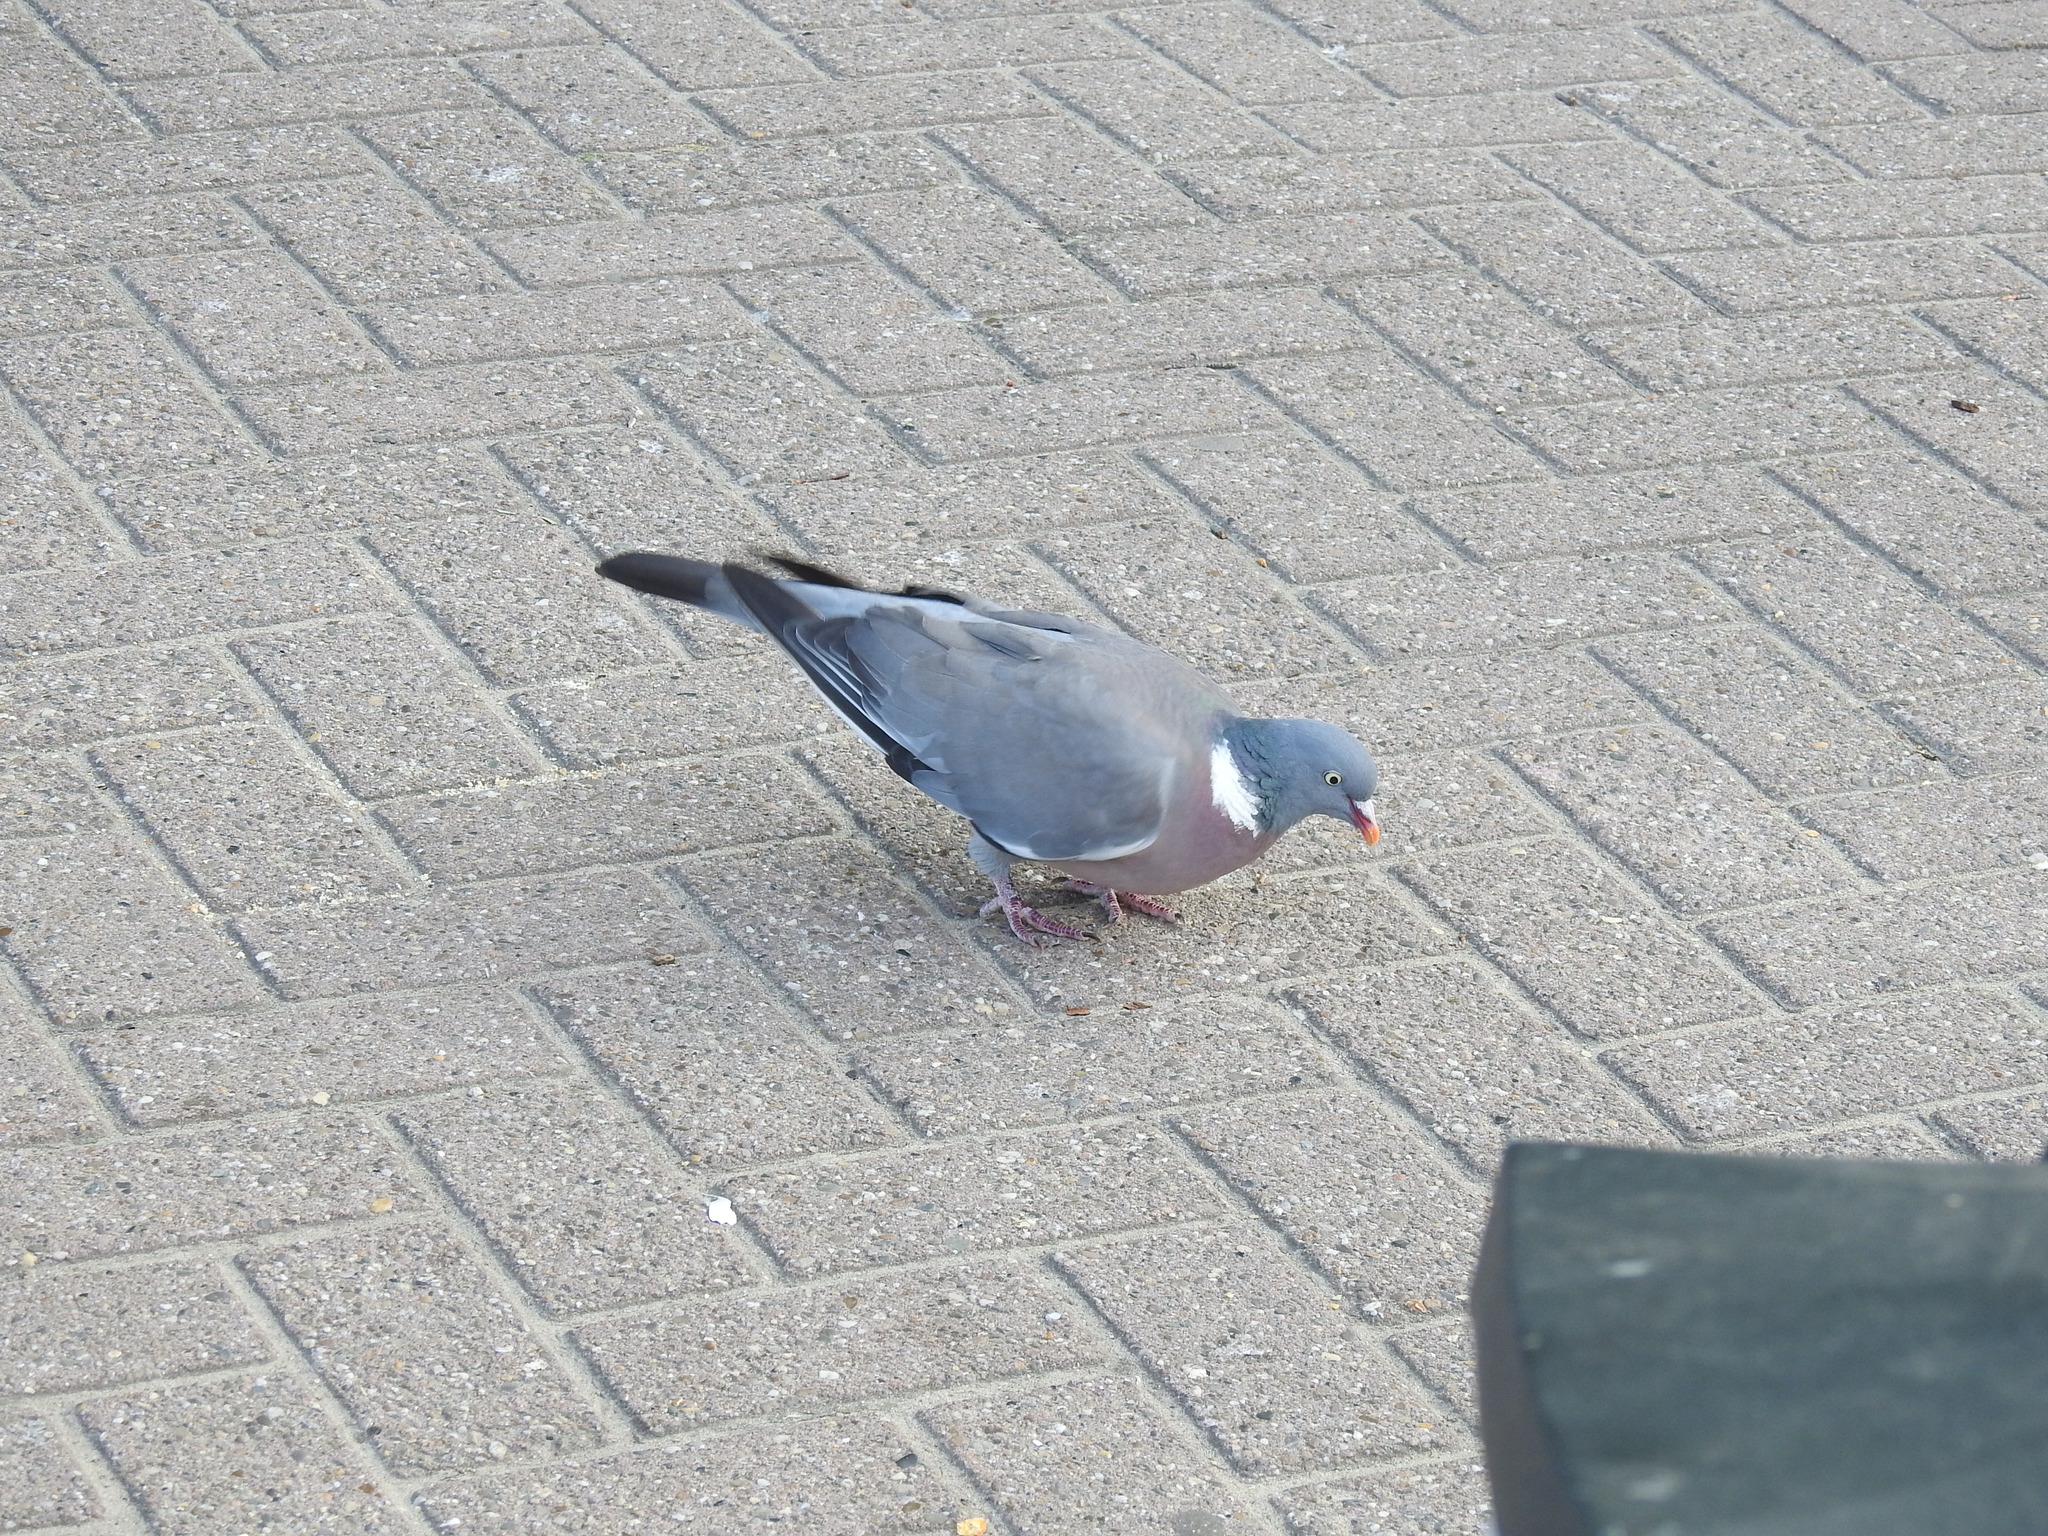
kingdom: Animalia
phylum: Chordata
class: Aves
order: Columbiformes
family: Columbidae
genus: Columba
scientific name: Columba palumbus
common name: Common wood pigeon
